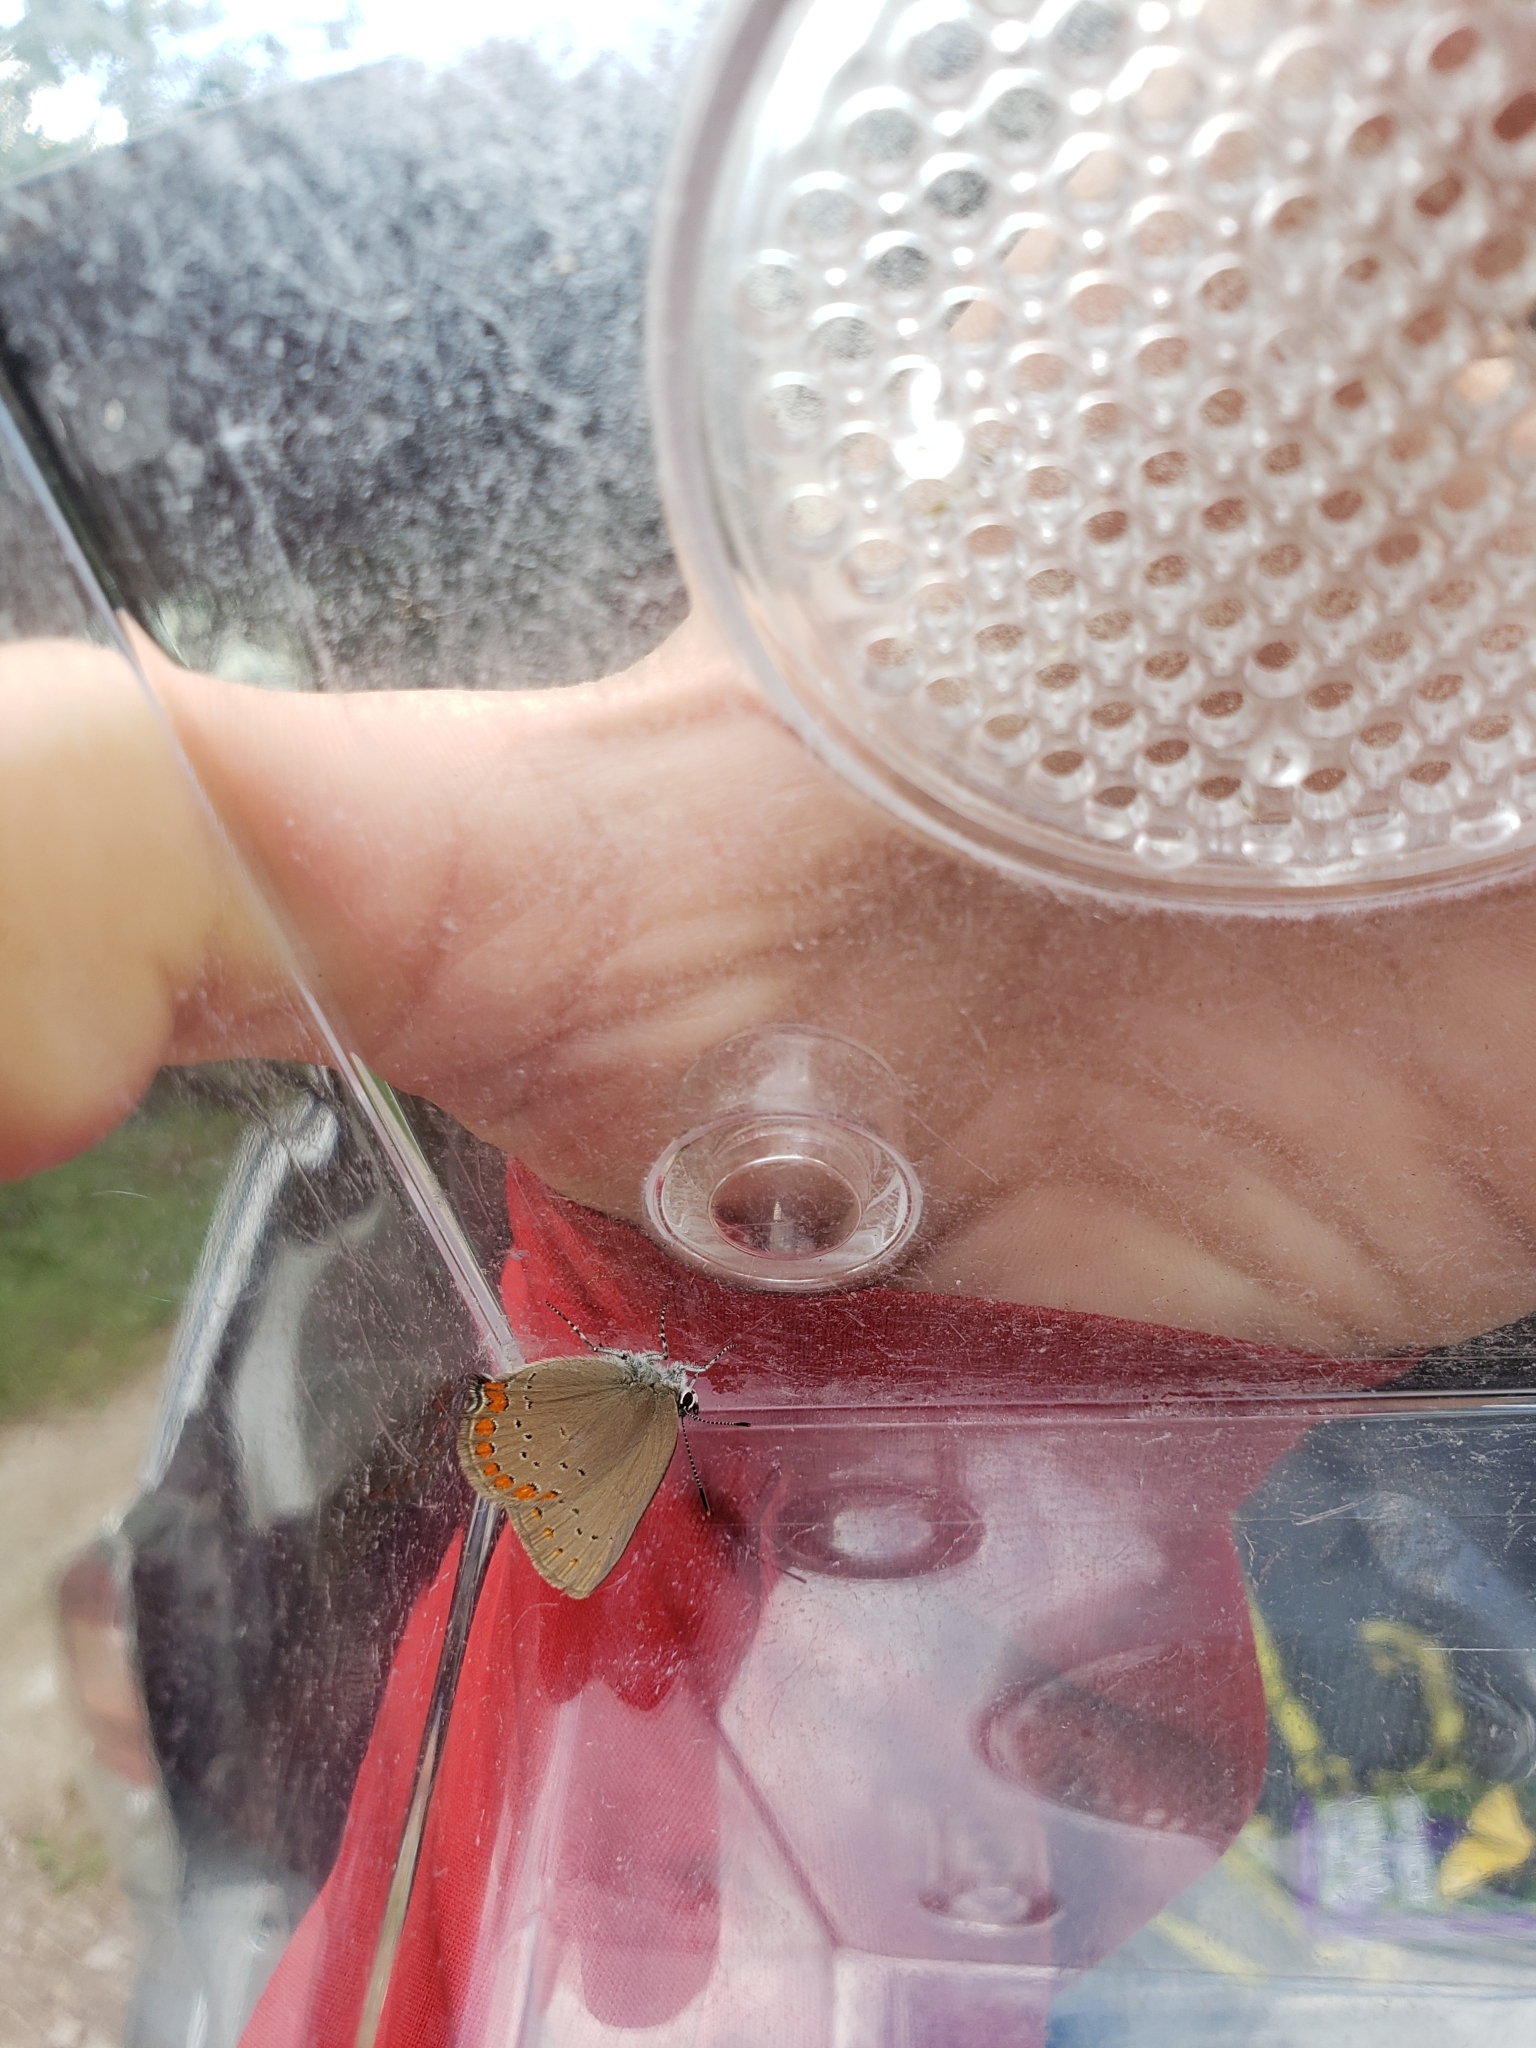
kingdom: Animalia
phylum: Arthropoda
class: Insecta
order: Lepidoptera
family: Lycaenidae
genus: Harkenclenus
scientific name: Harkenclenus titus
